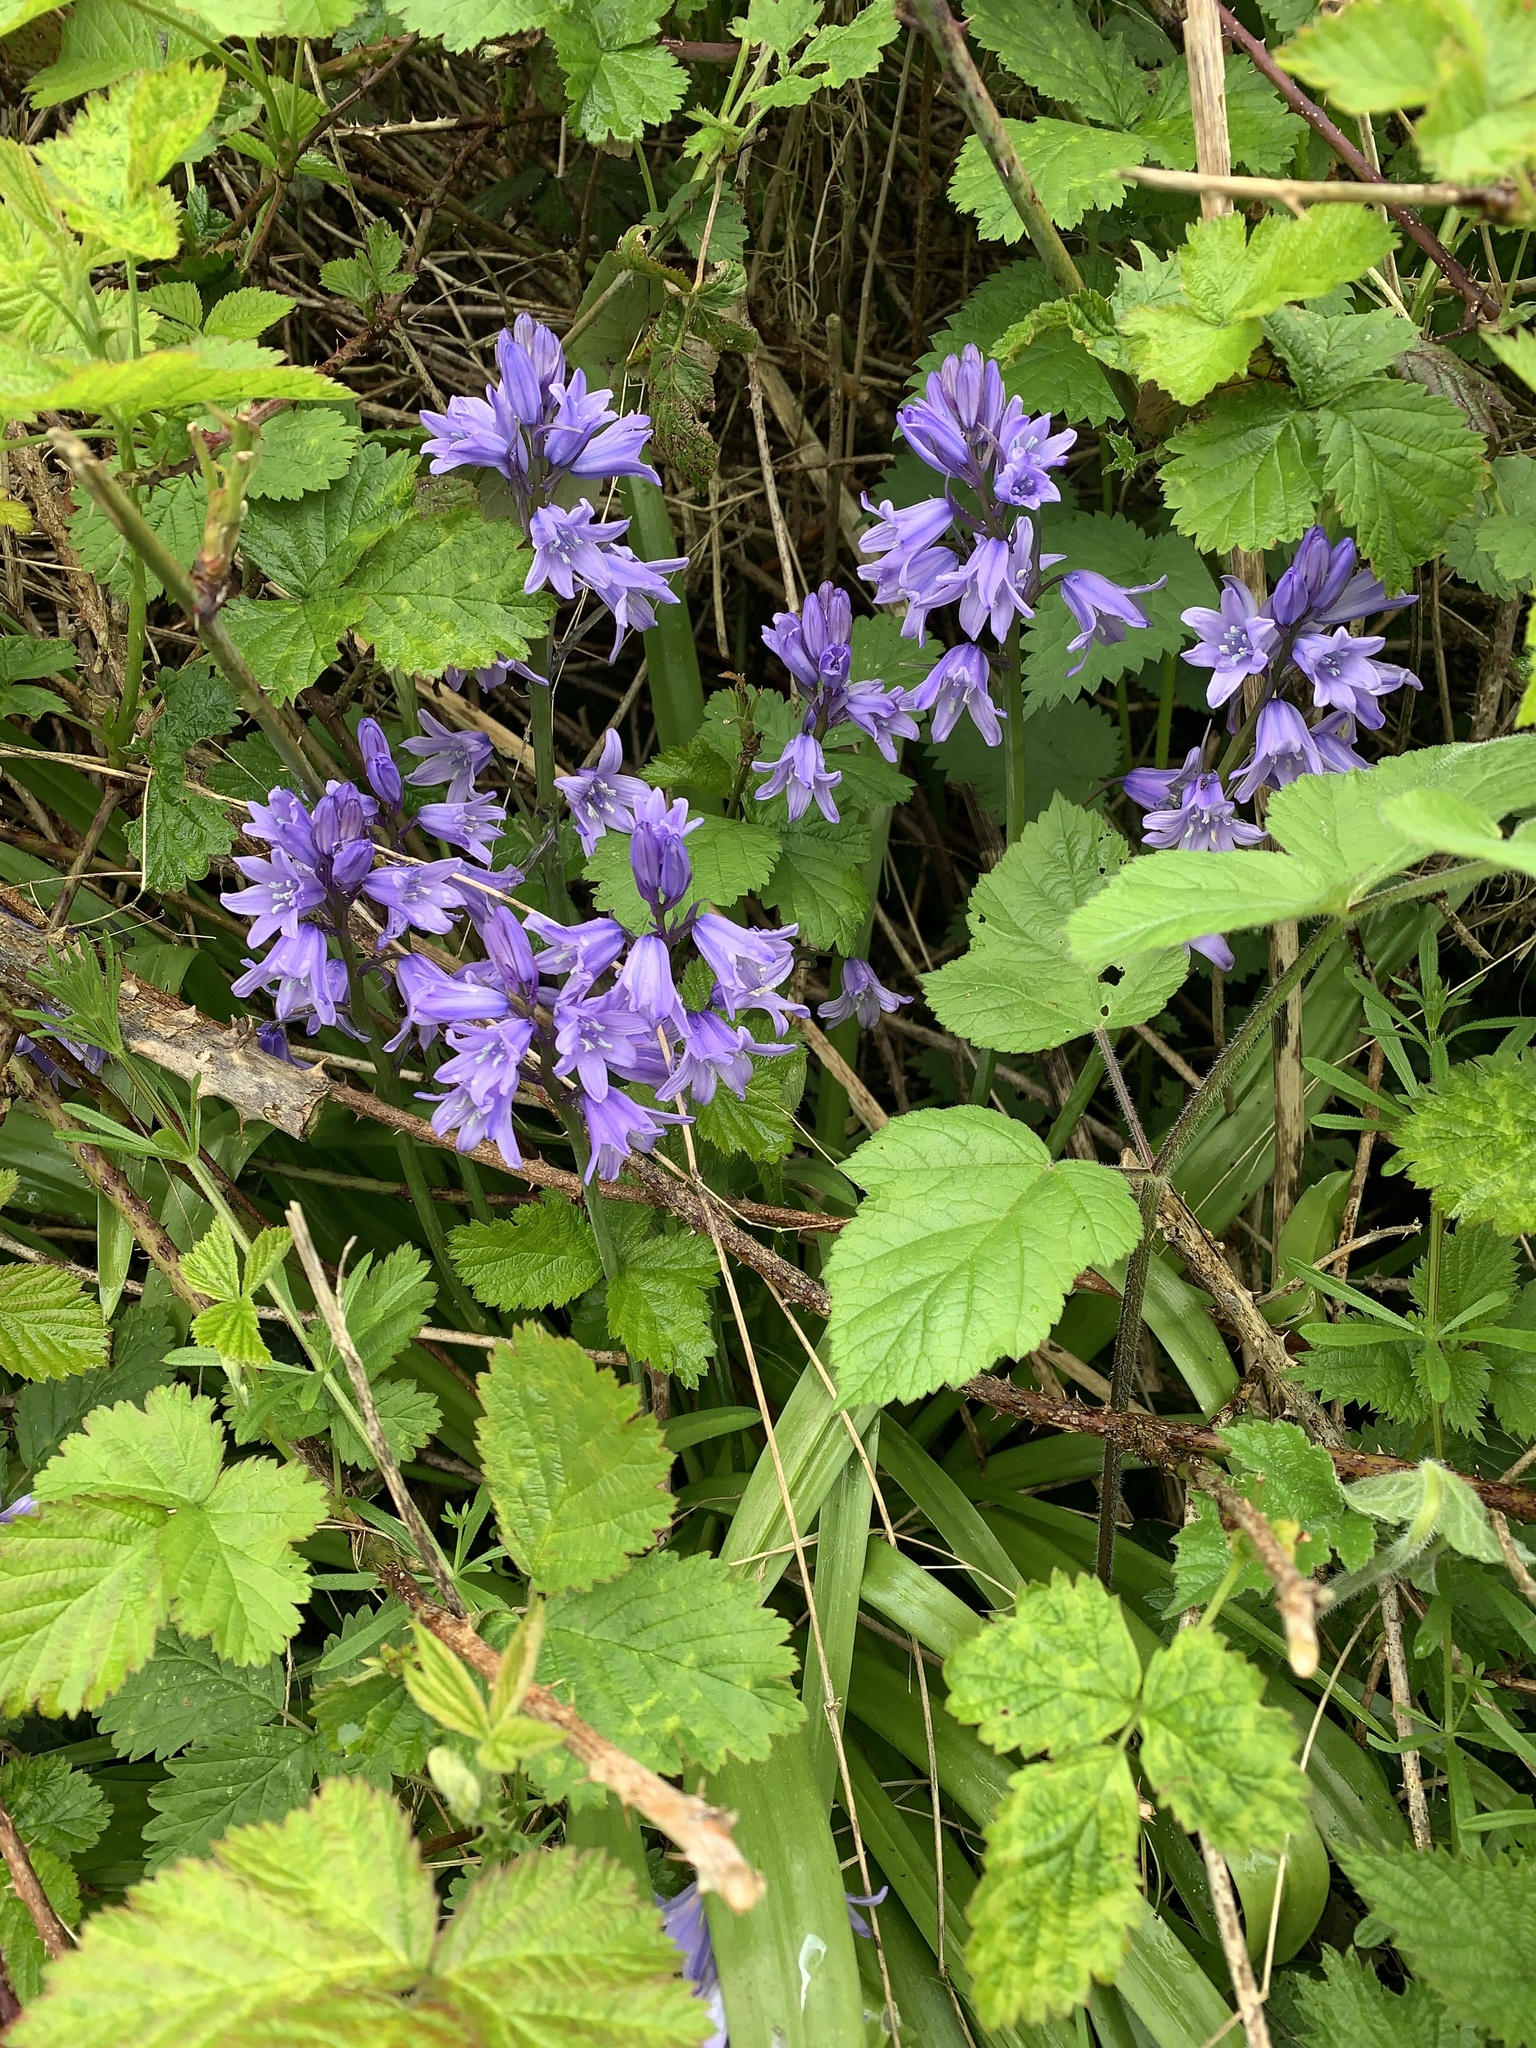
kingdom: Plantae
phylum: Tracheophyta
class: Liliopsida
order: Asparagales
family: Asparagaceae
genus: Hyacinthoides
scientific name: Hyacinthoides hispanica
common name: Spanish bluebell
